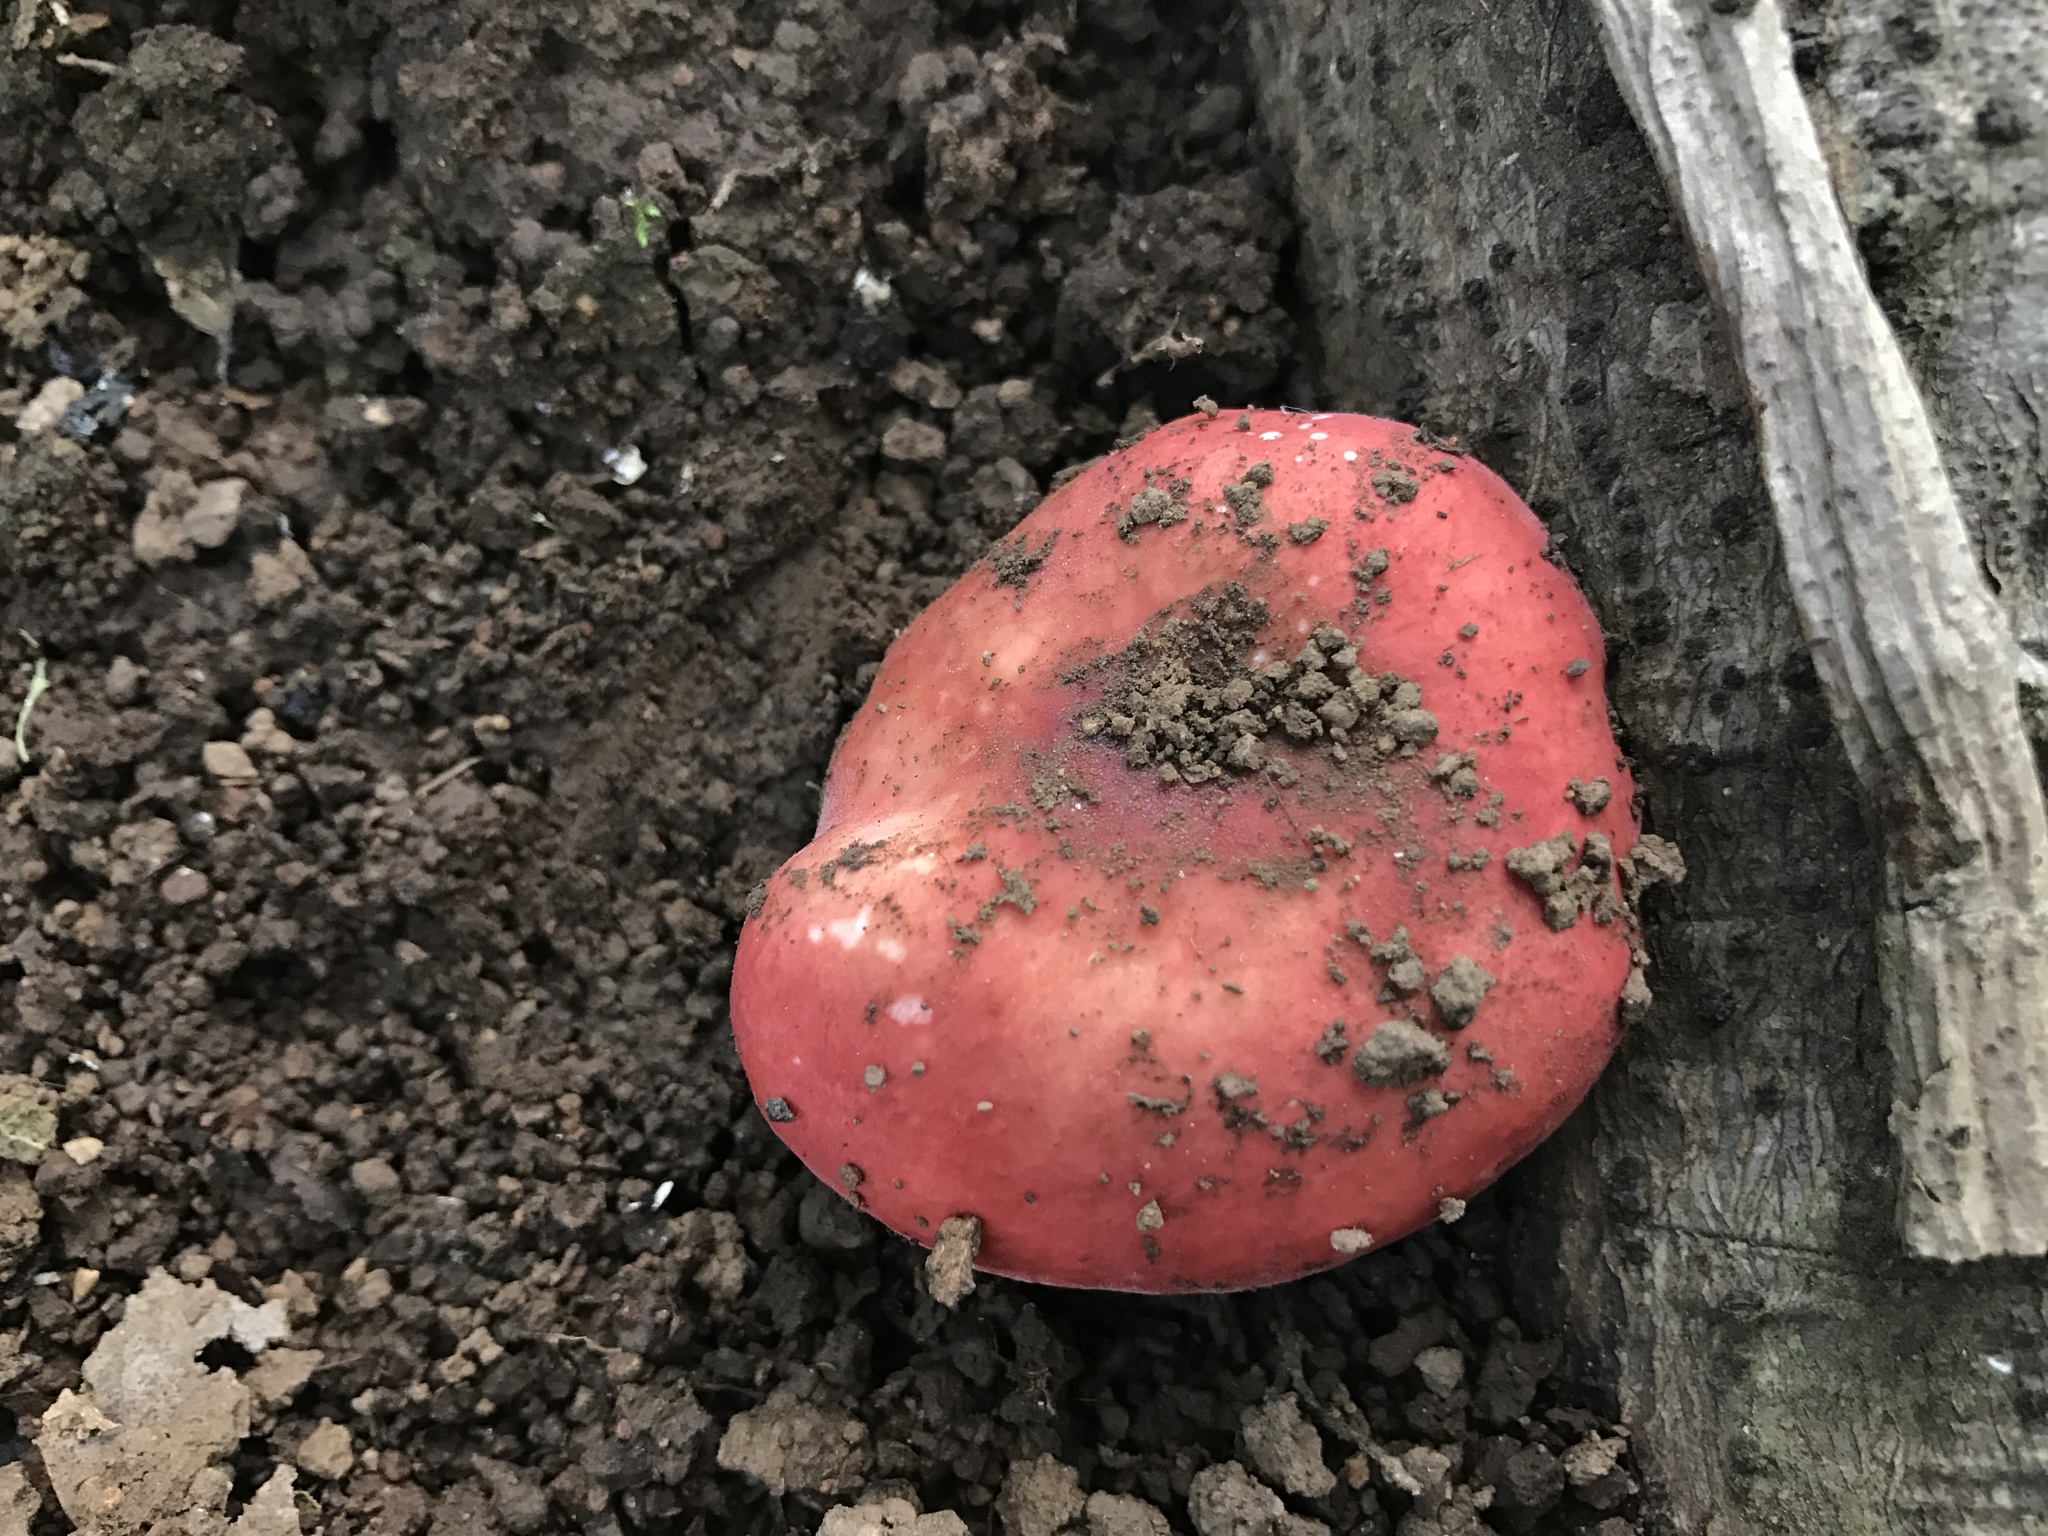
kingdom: Fungi
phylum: Basidiomycota
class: Agaricomycetes
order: Russulales
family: Russulaceae
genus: Russula
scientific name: Russula cremoricolor
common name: Winter russula
